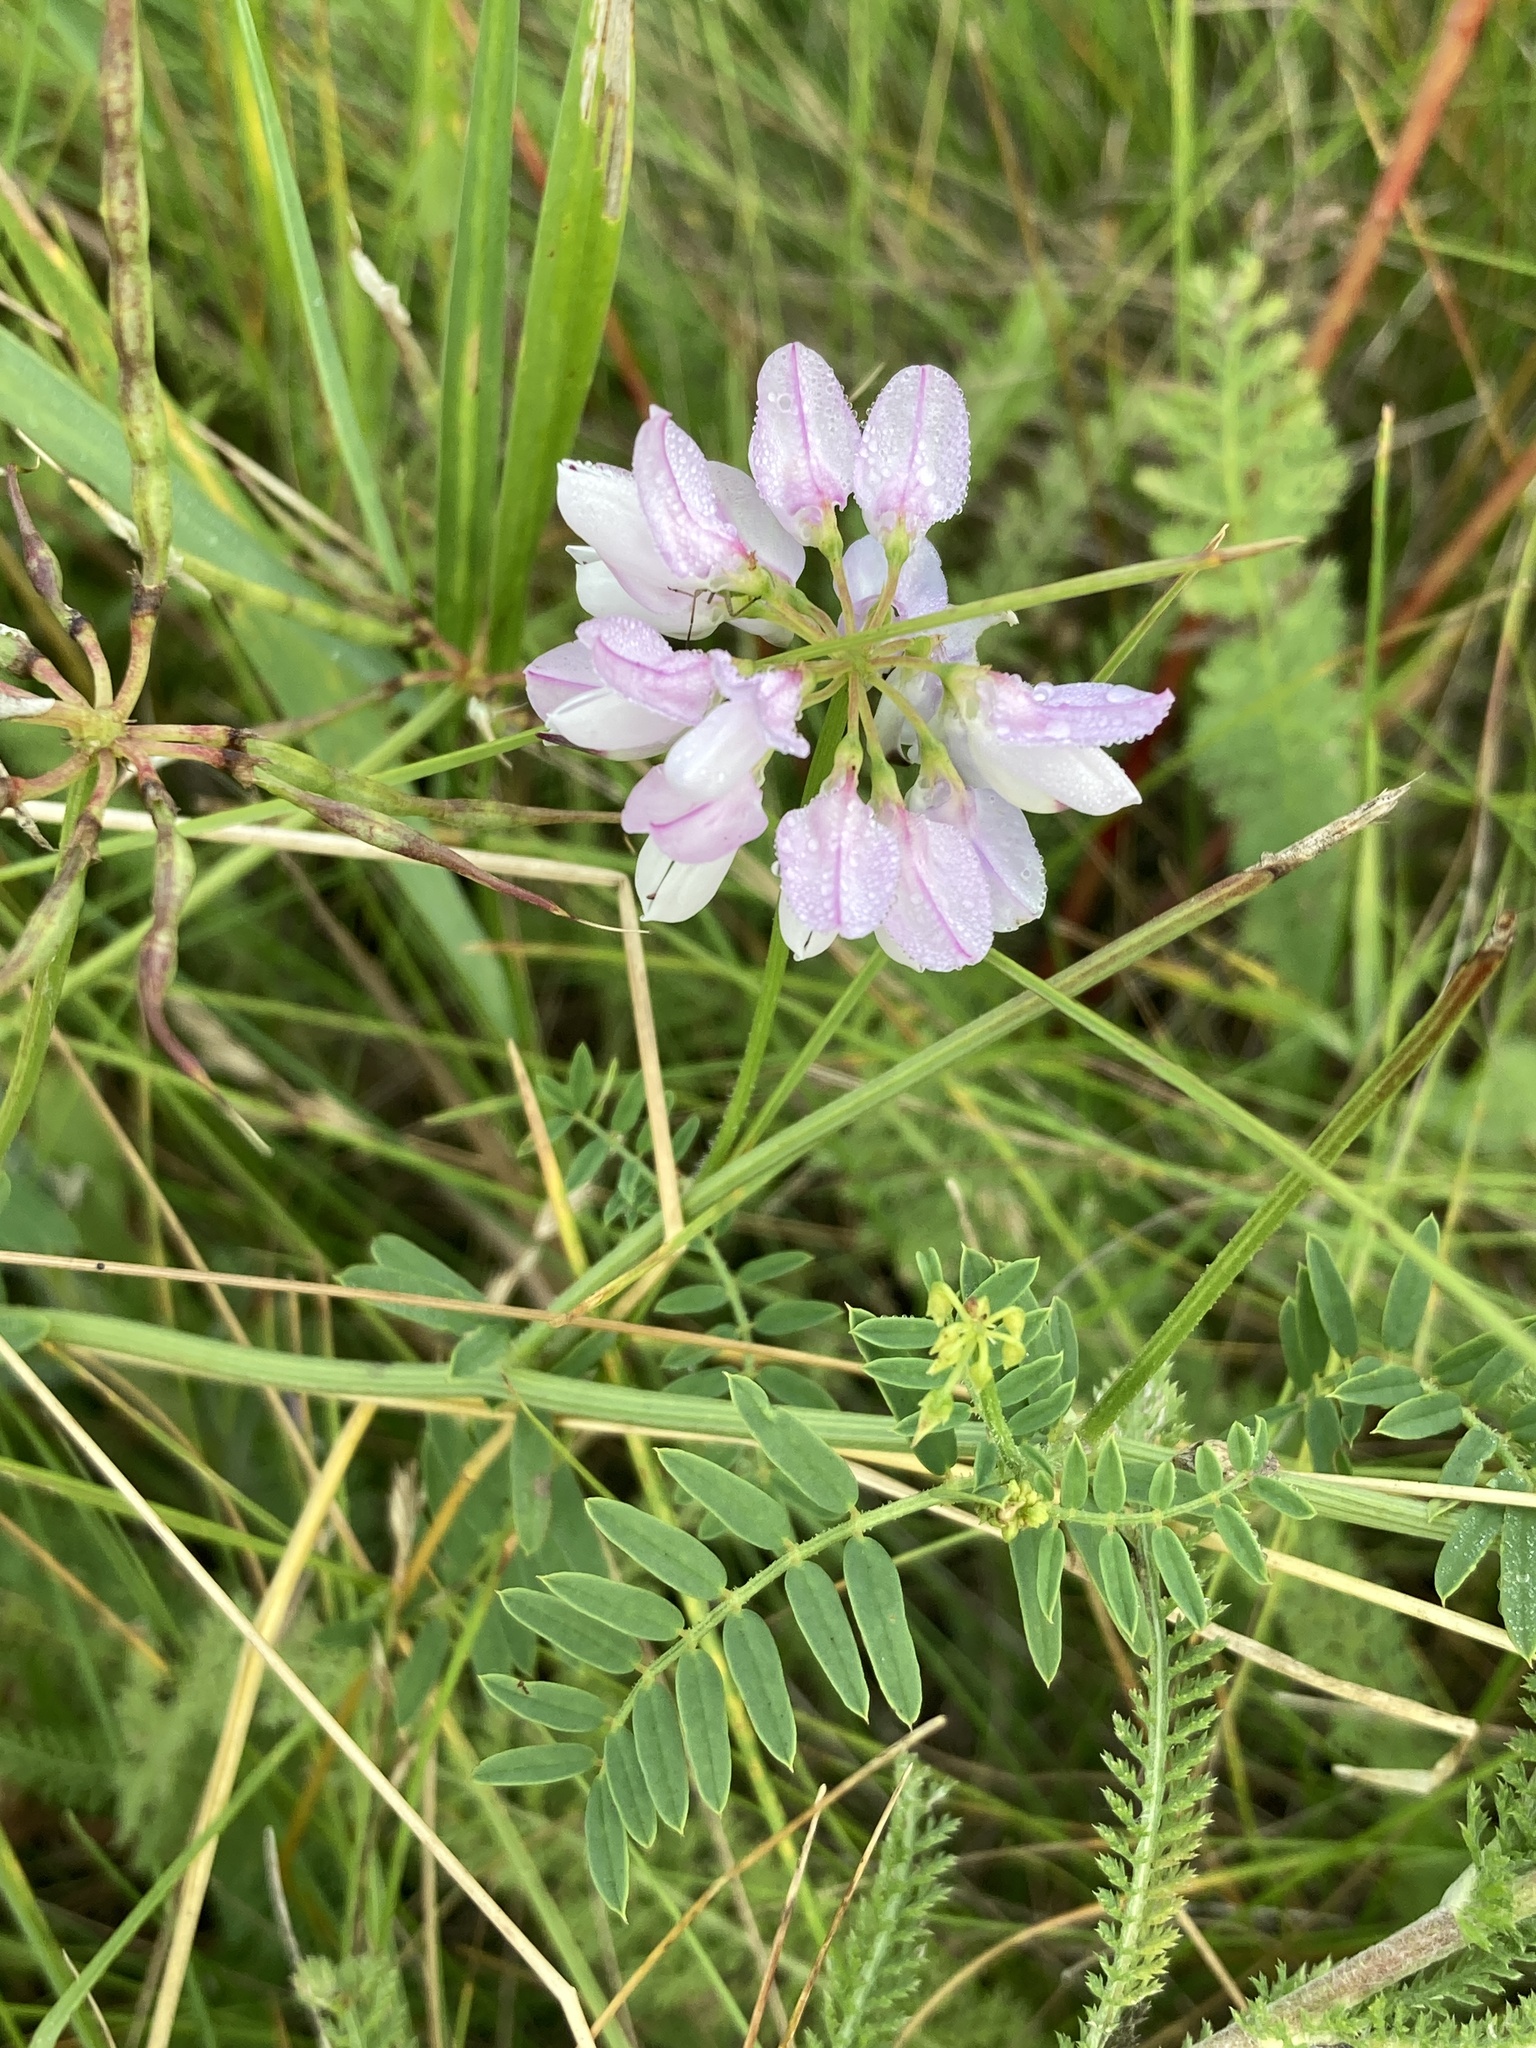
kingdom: Plantae
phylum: Tracheophyta
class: Magnoliopsida
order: Fabales
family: Fabaceae
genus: Coronilla
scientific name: Coronilla varia
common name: Crownvetch
